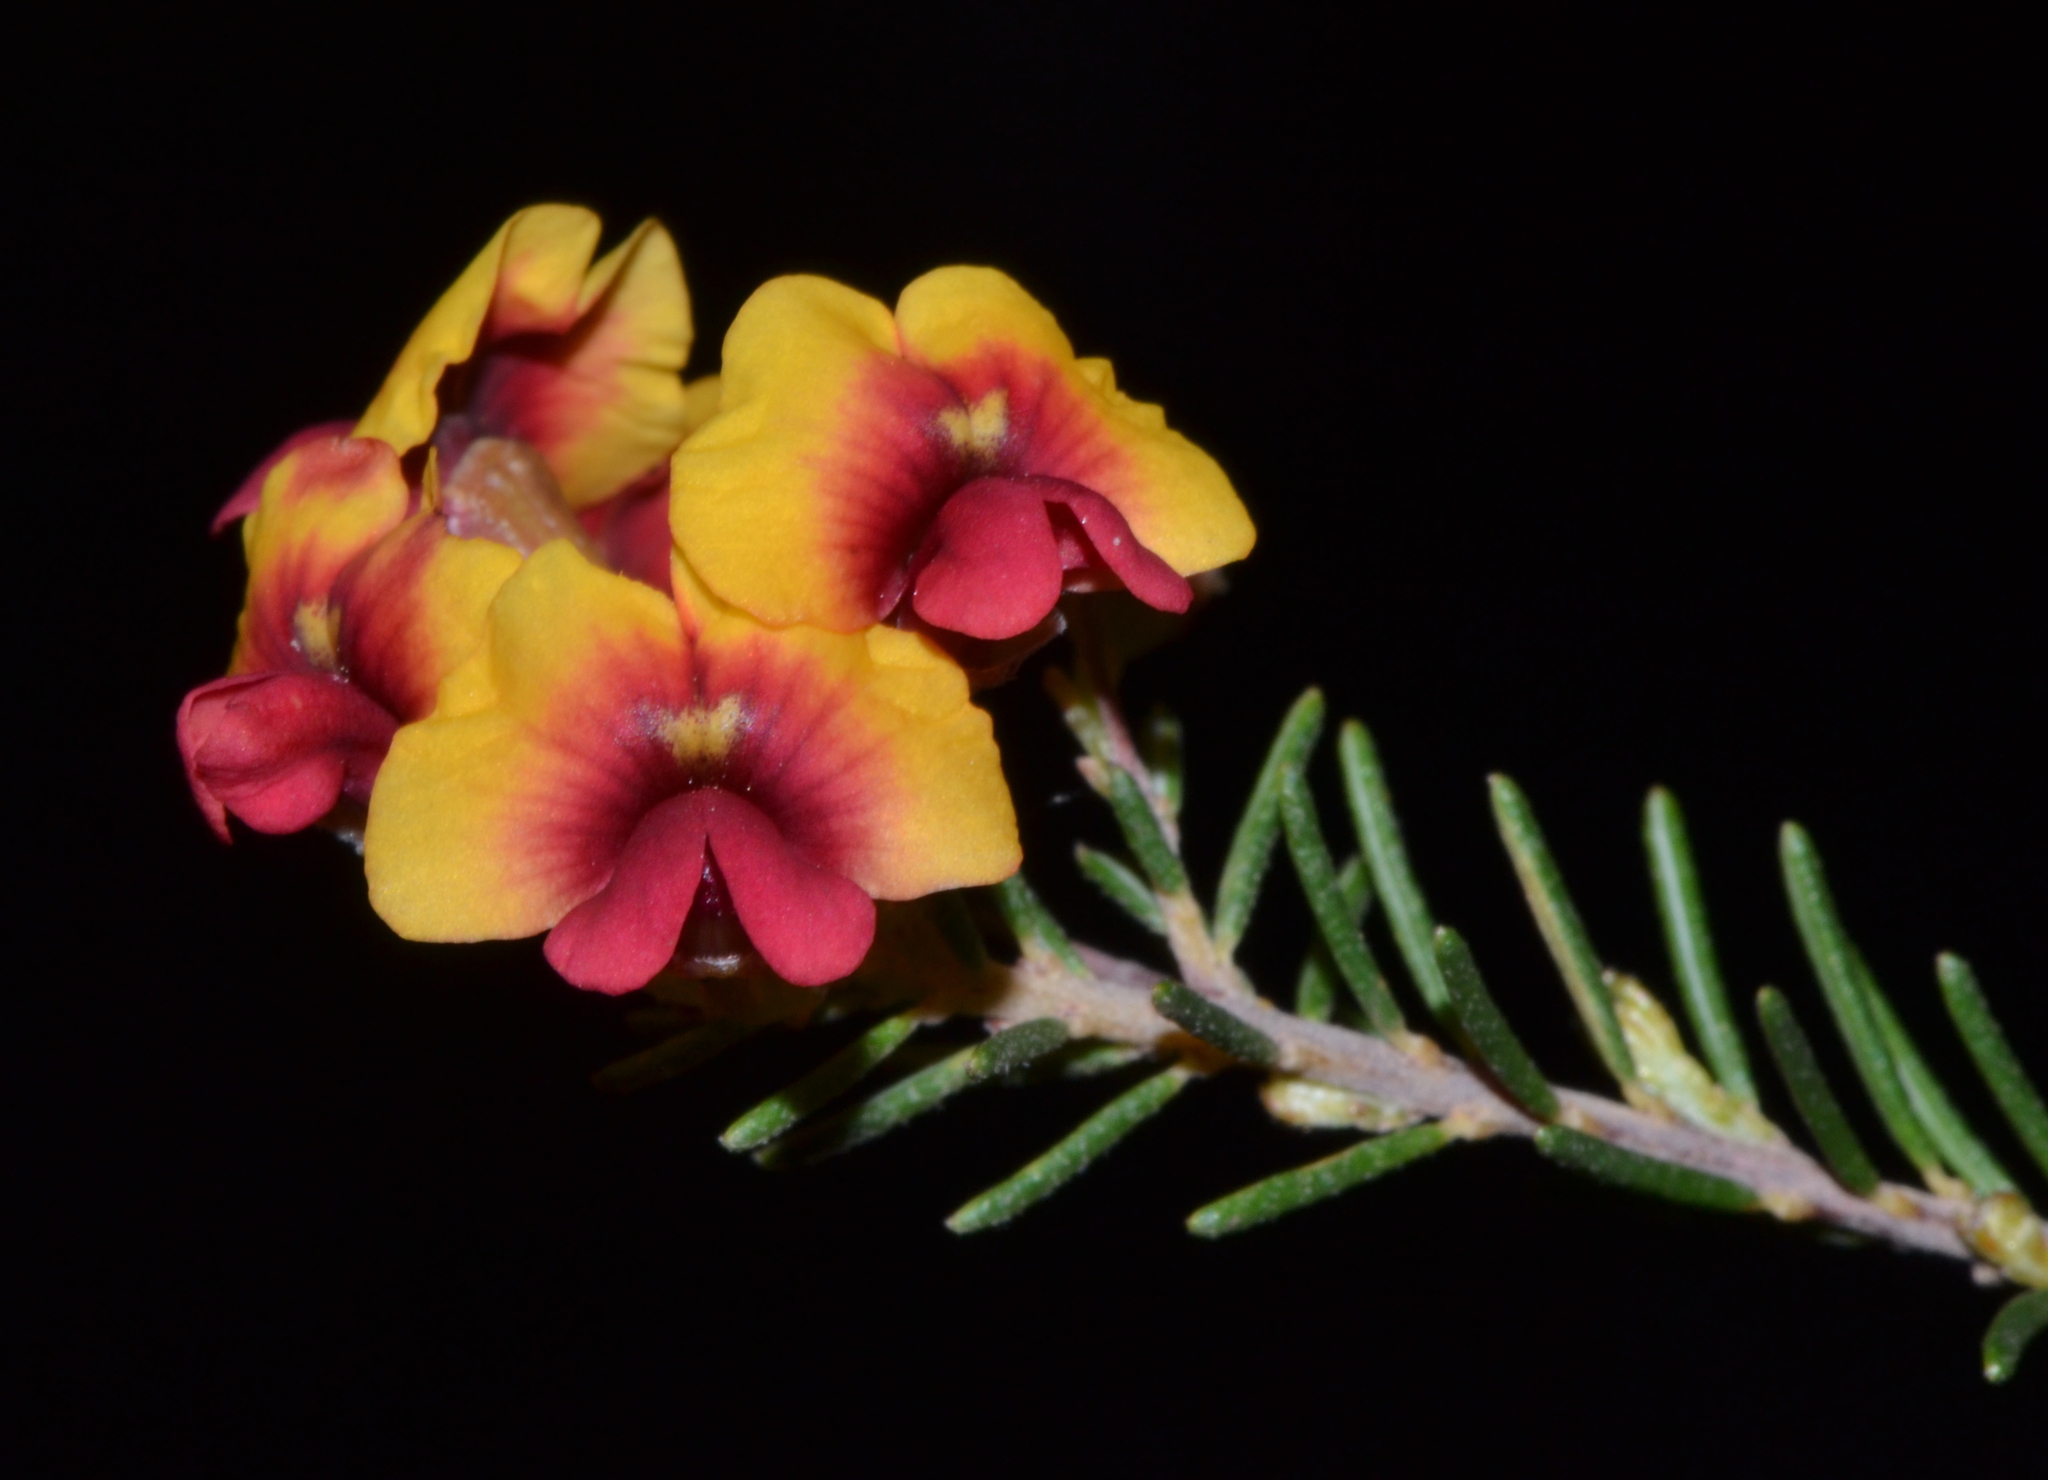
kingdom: Plantae
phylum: Tracheophyta
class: Magnoliopsida
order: Fabales
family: Fabaceae
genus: Dillwynia
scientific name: Dillwynia laxiflora
